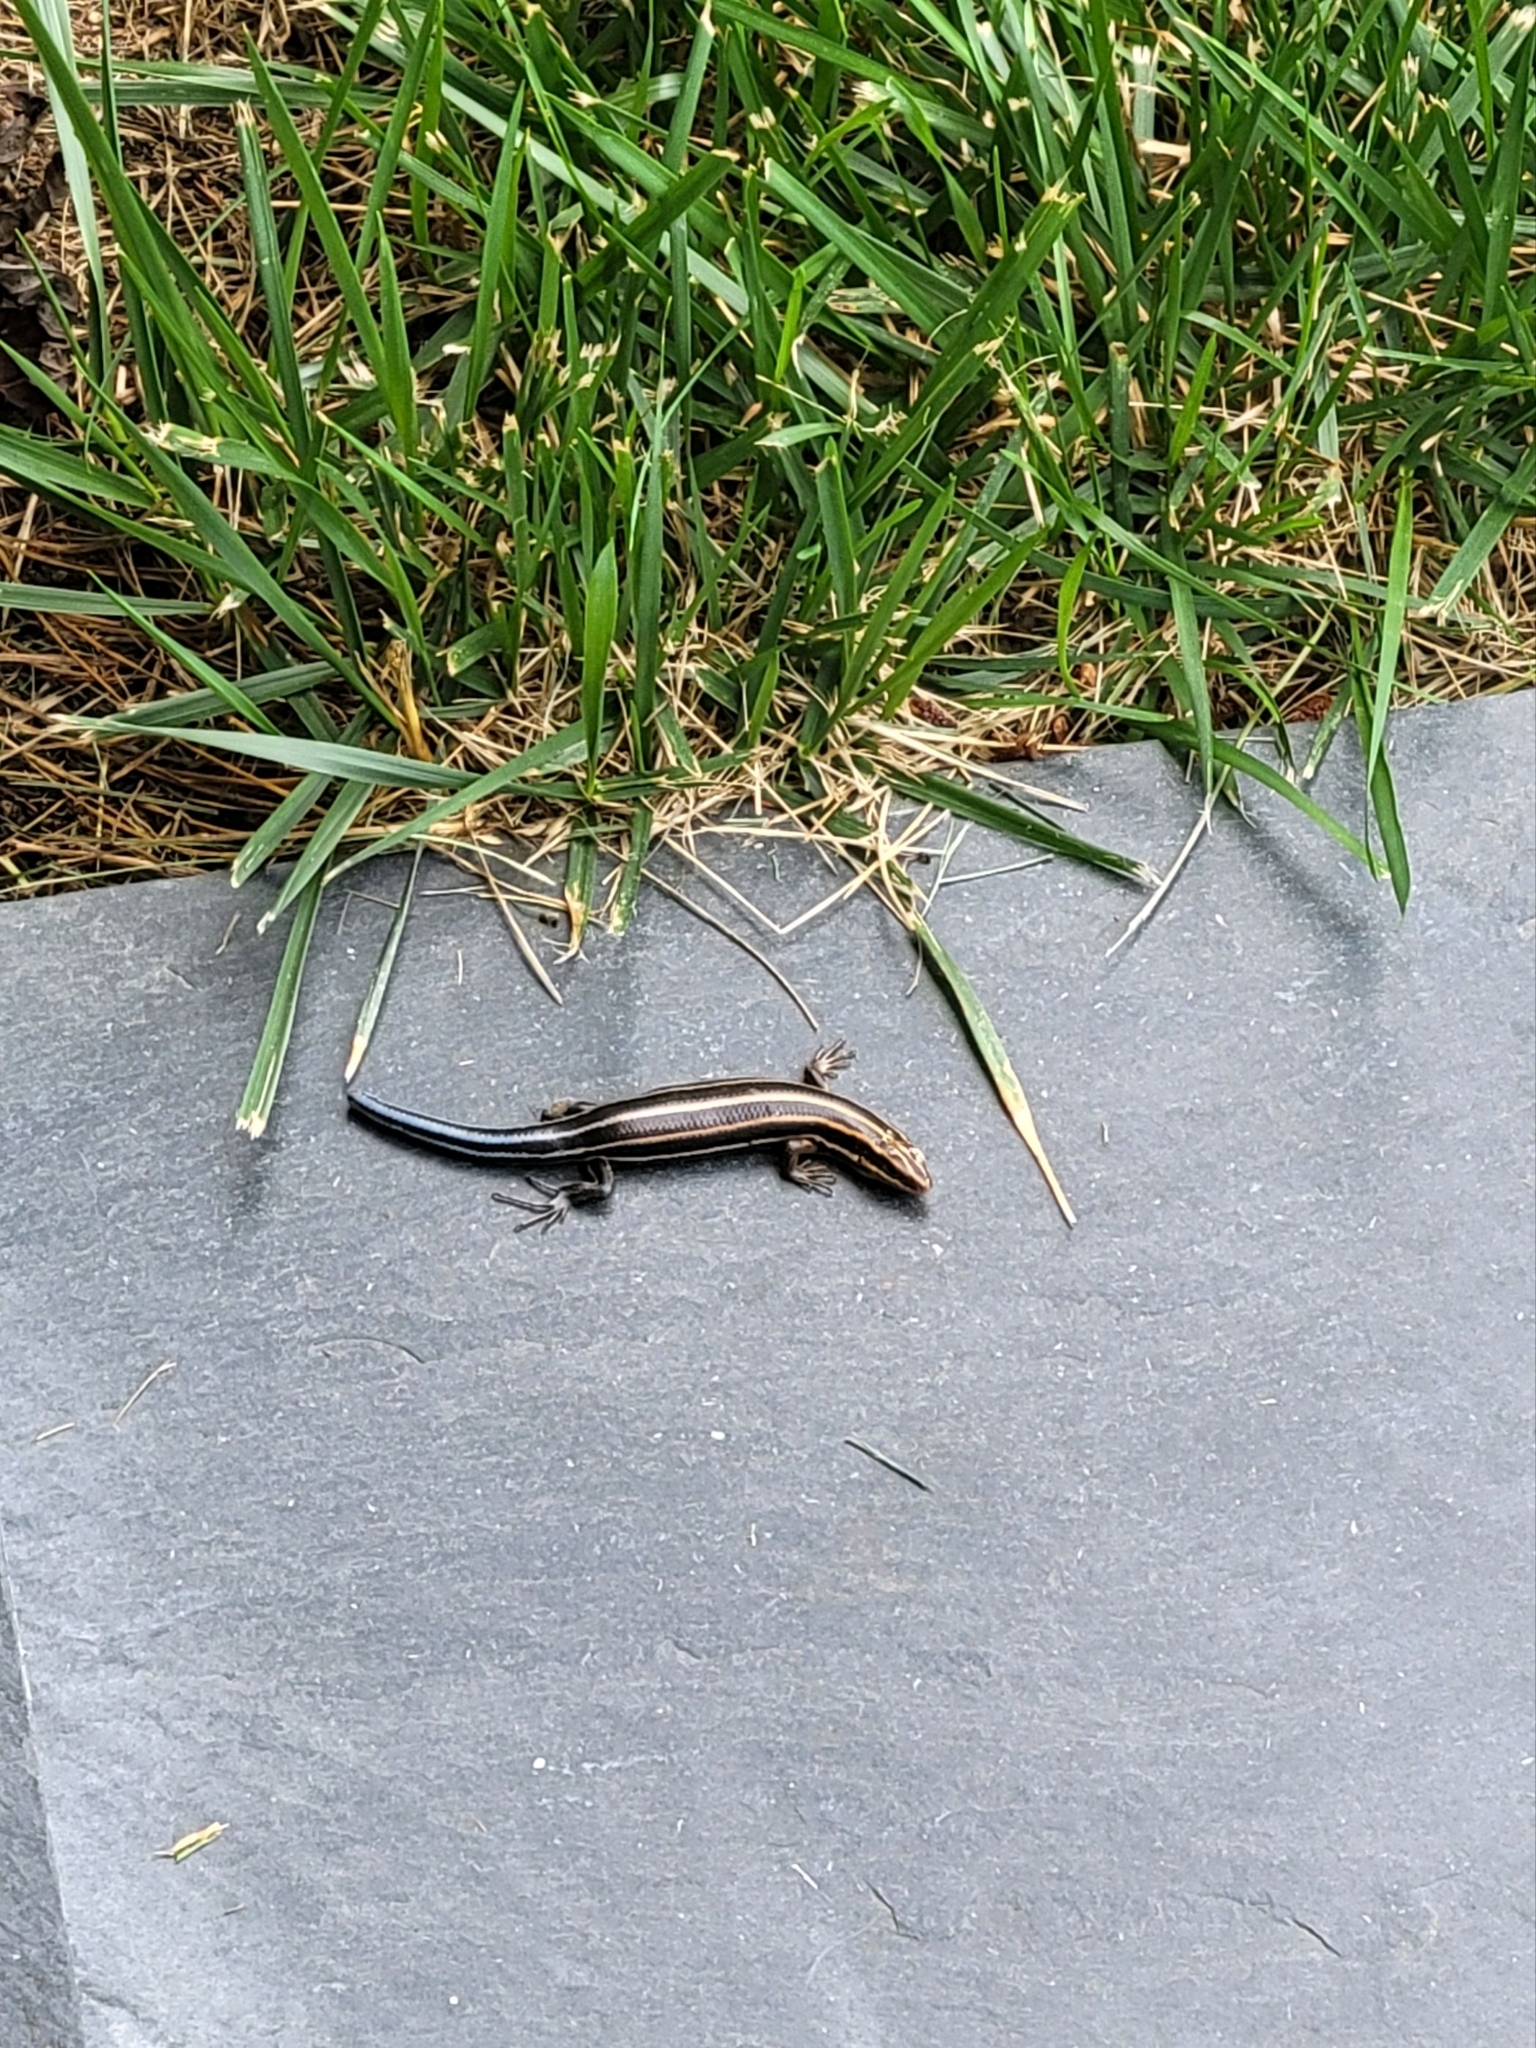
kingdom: Animalia
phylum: Chordata
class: Squamata
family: Scincidae
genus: Plestiodon
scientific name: Plestiodon fasciatus
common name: Five-lined skink
